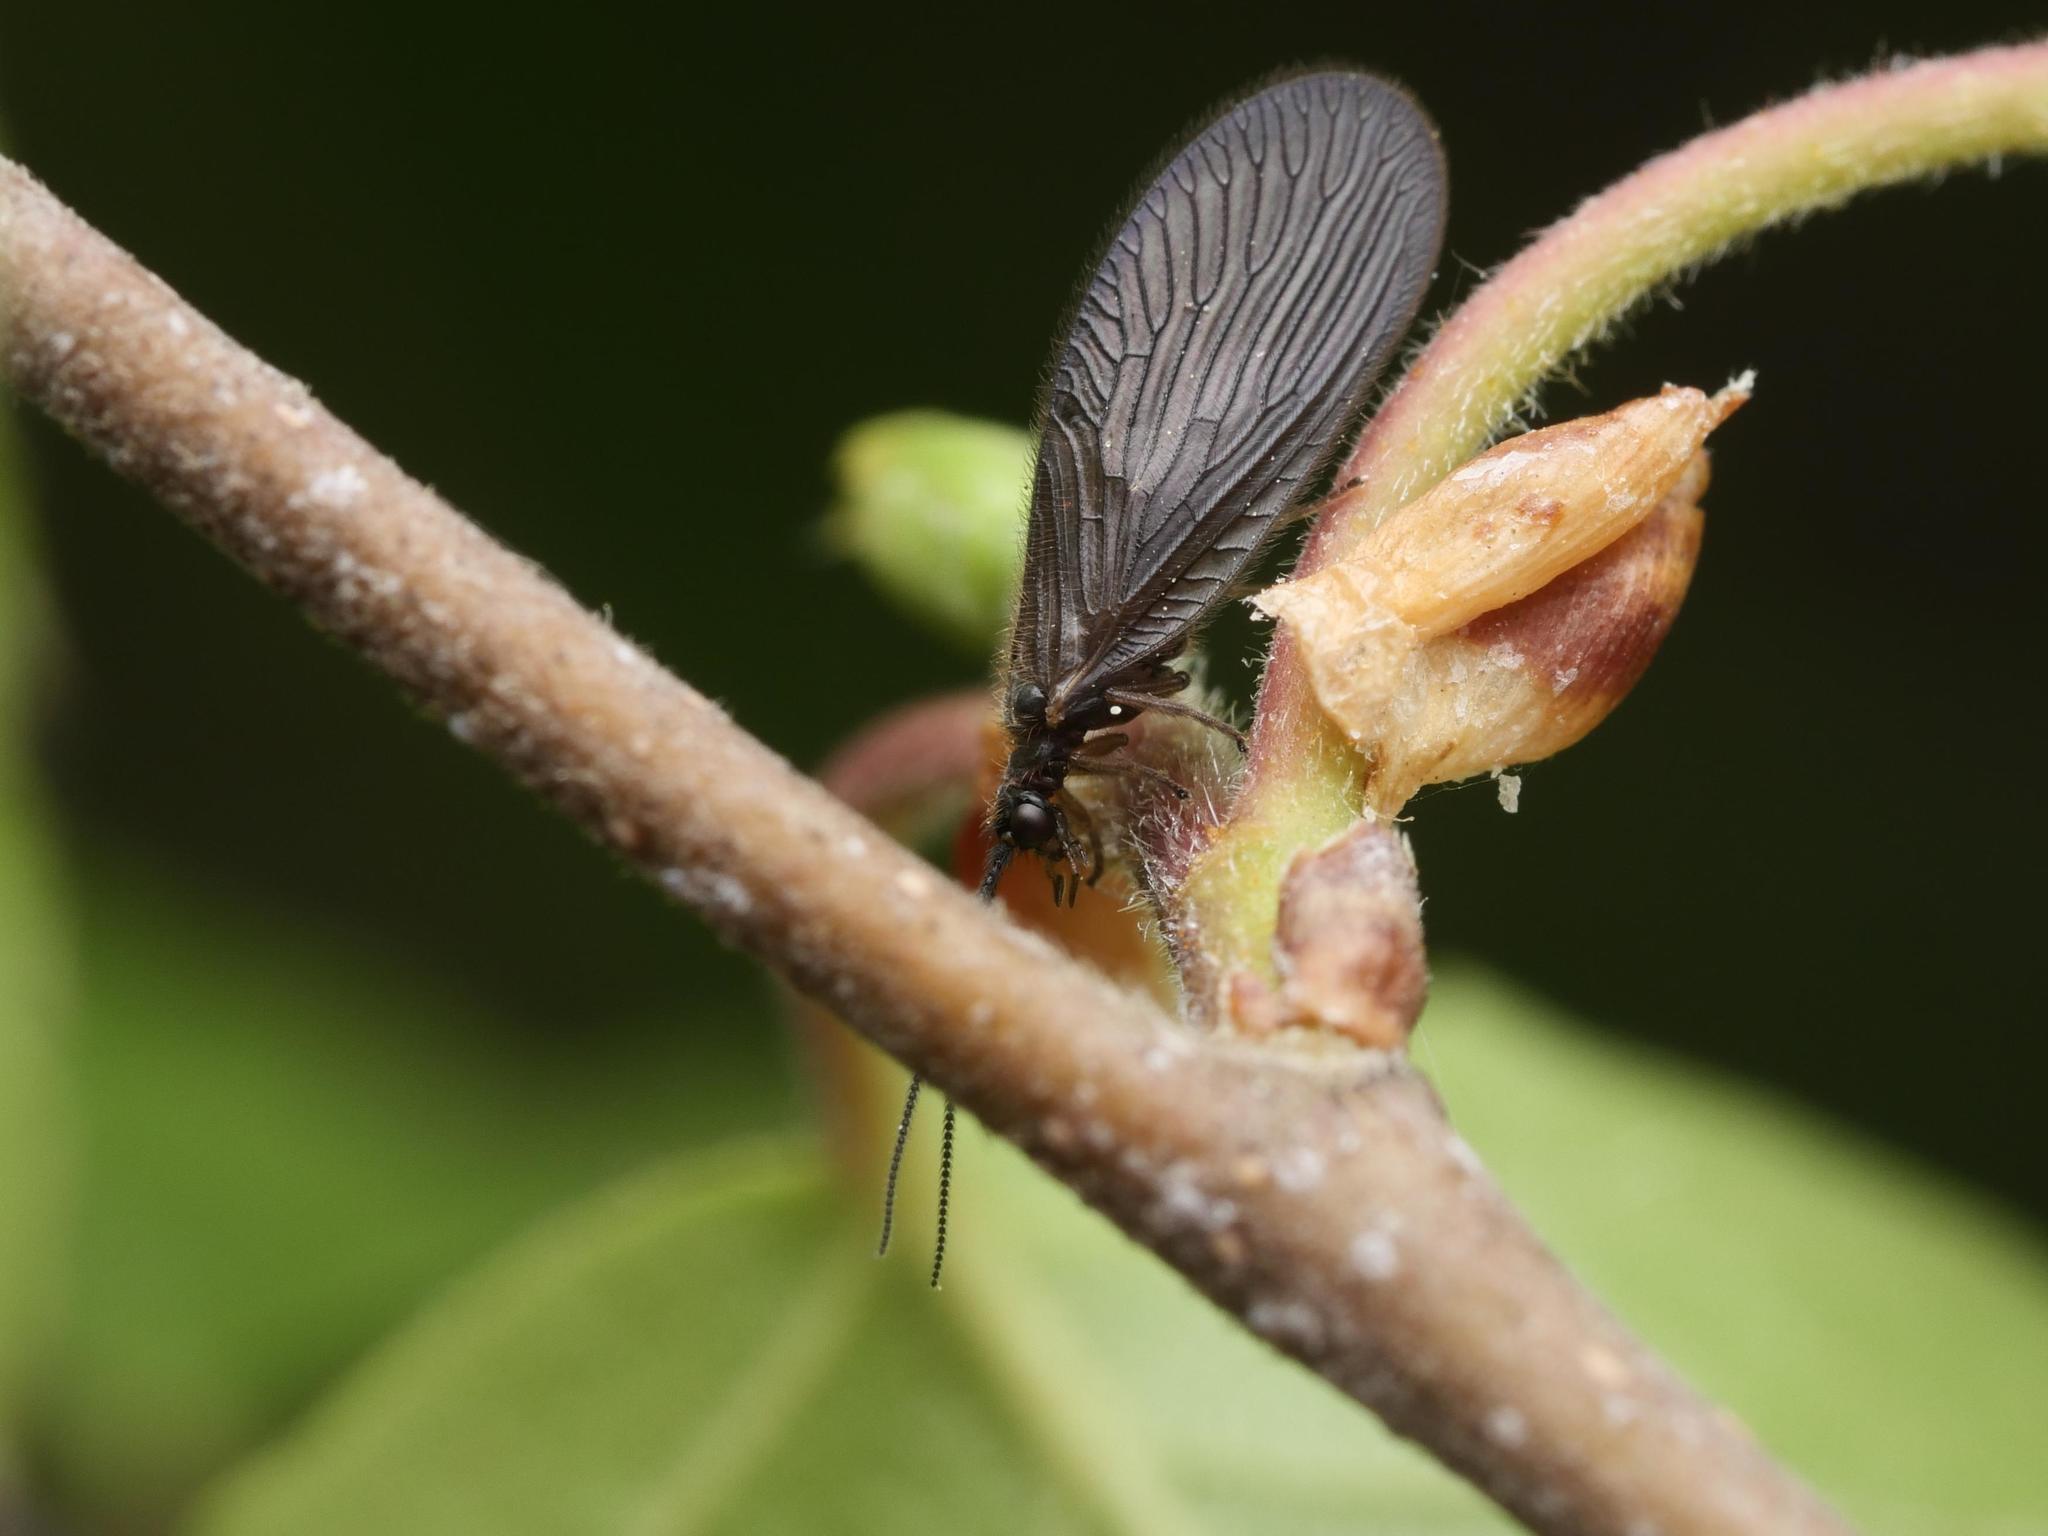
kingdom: Animalia
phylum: Arthropoda
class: Insecta
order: Neuroptera
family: Sisyridae
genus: Sisyra
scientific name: Sisyra nigra
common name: Black spongillafly
